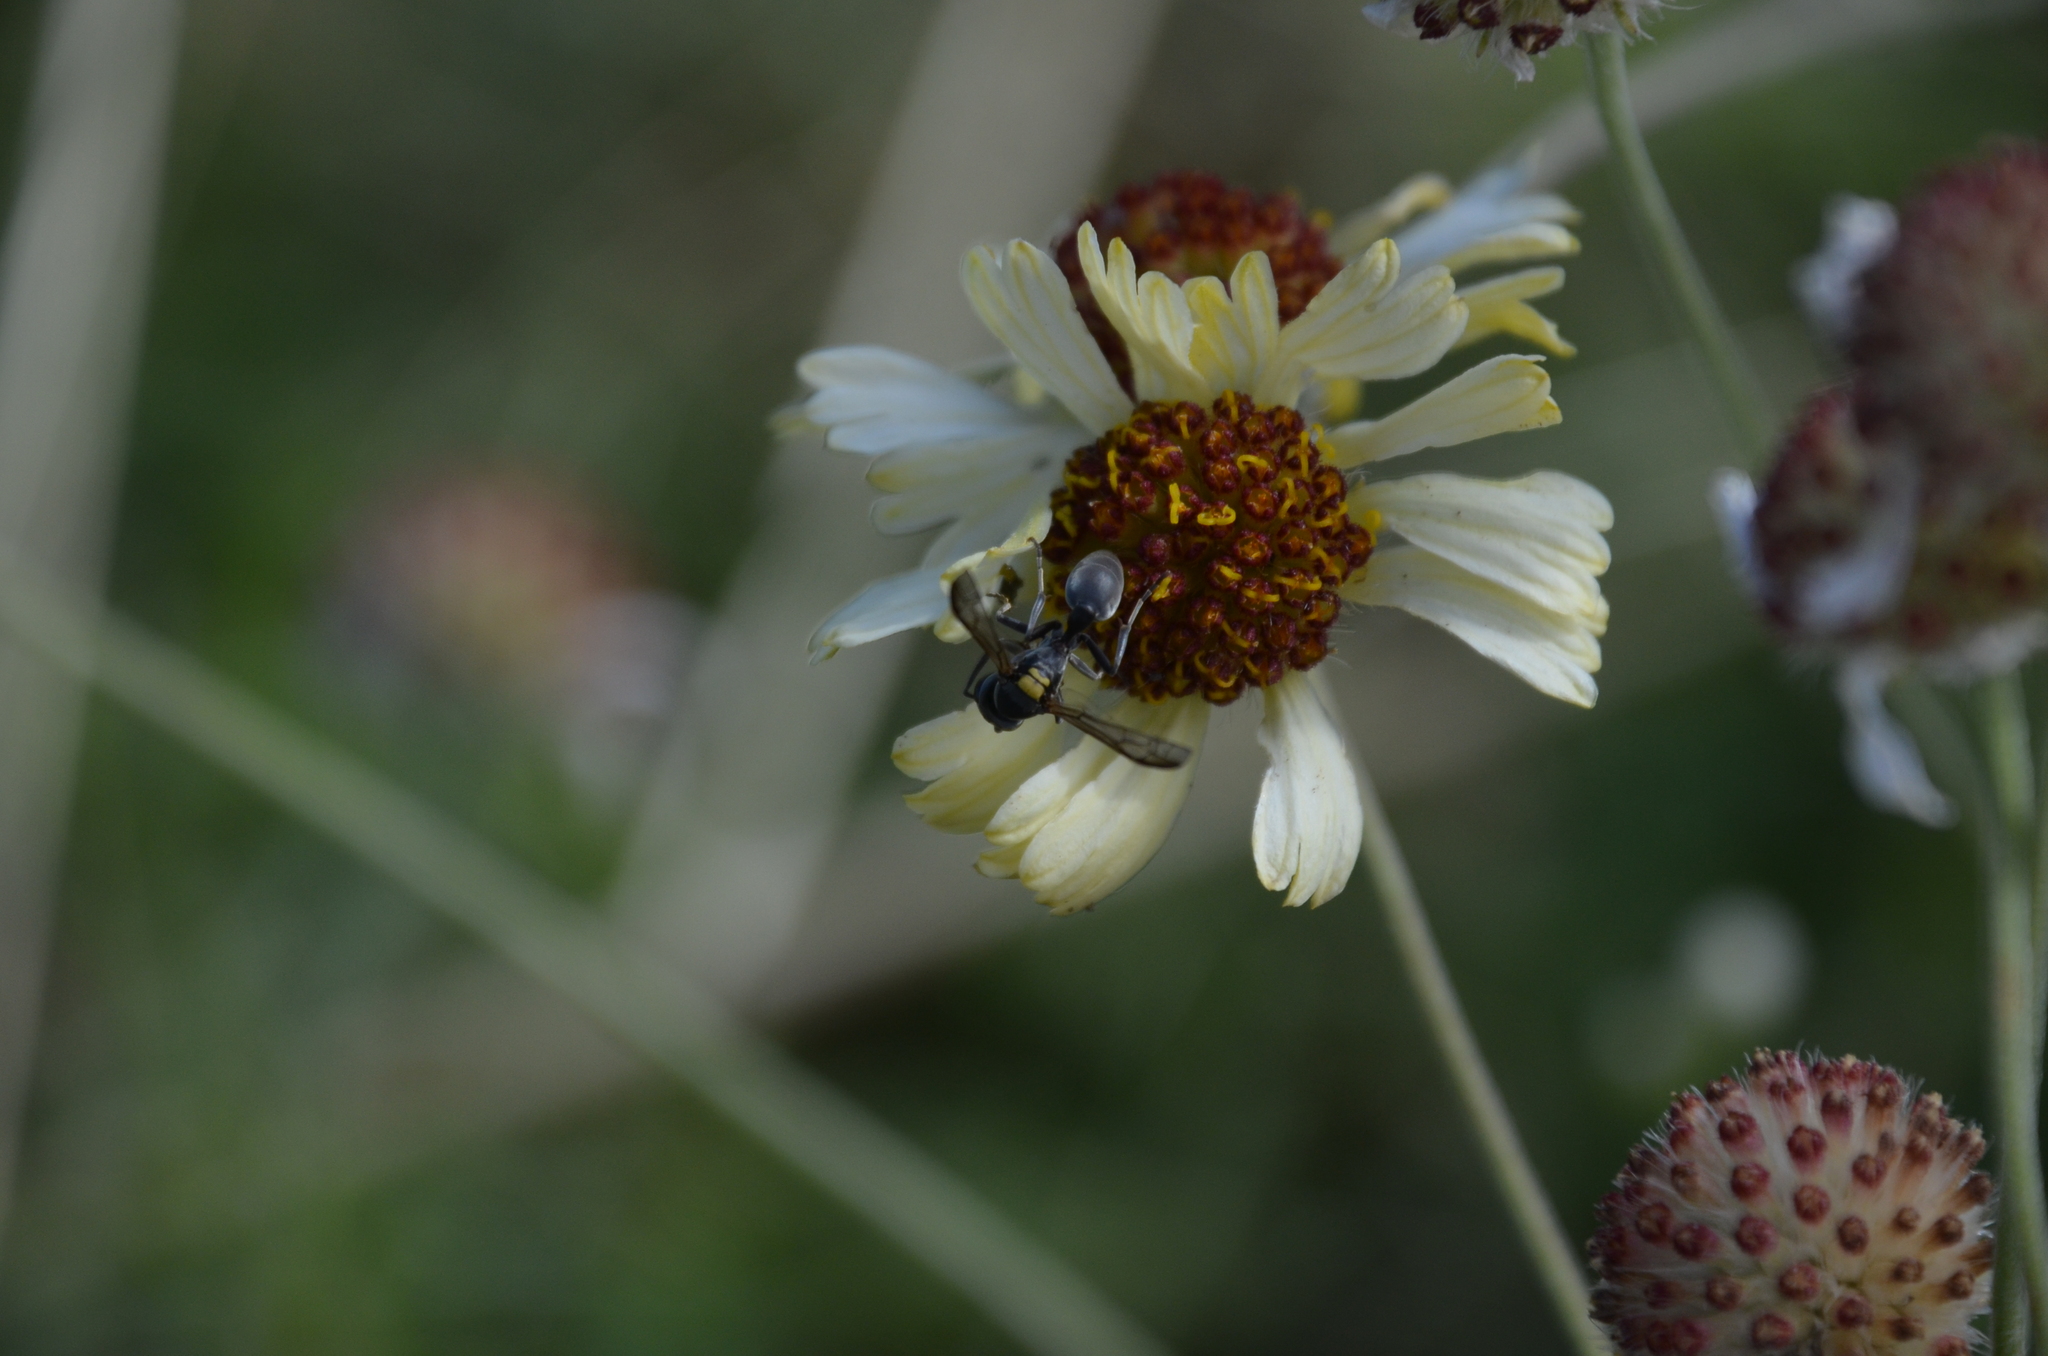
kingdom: Animalia
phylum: Arthropoda
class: Insecta
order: Hymenoptera
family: Eumenidae
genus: Polybia
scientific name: Polybia scutellaris
